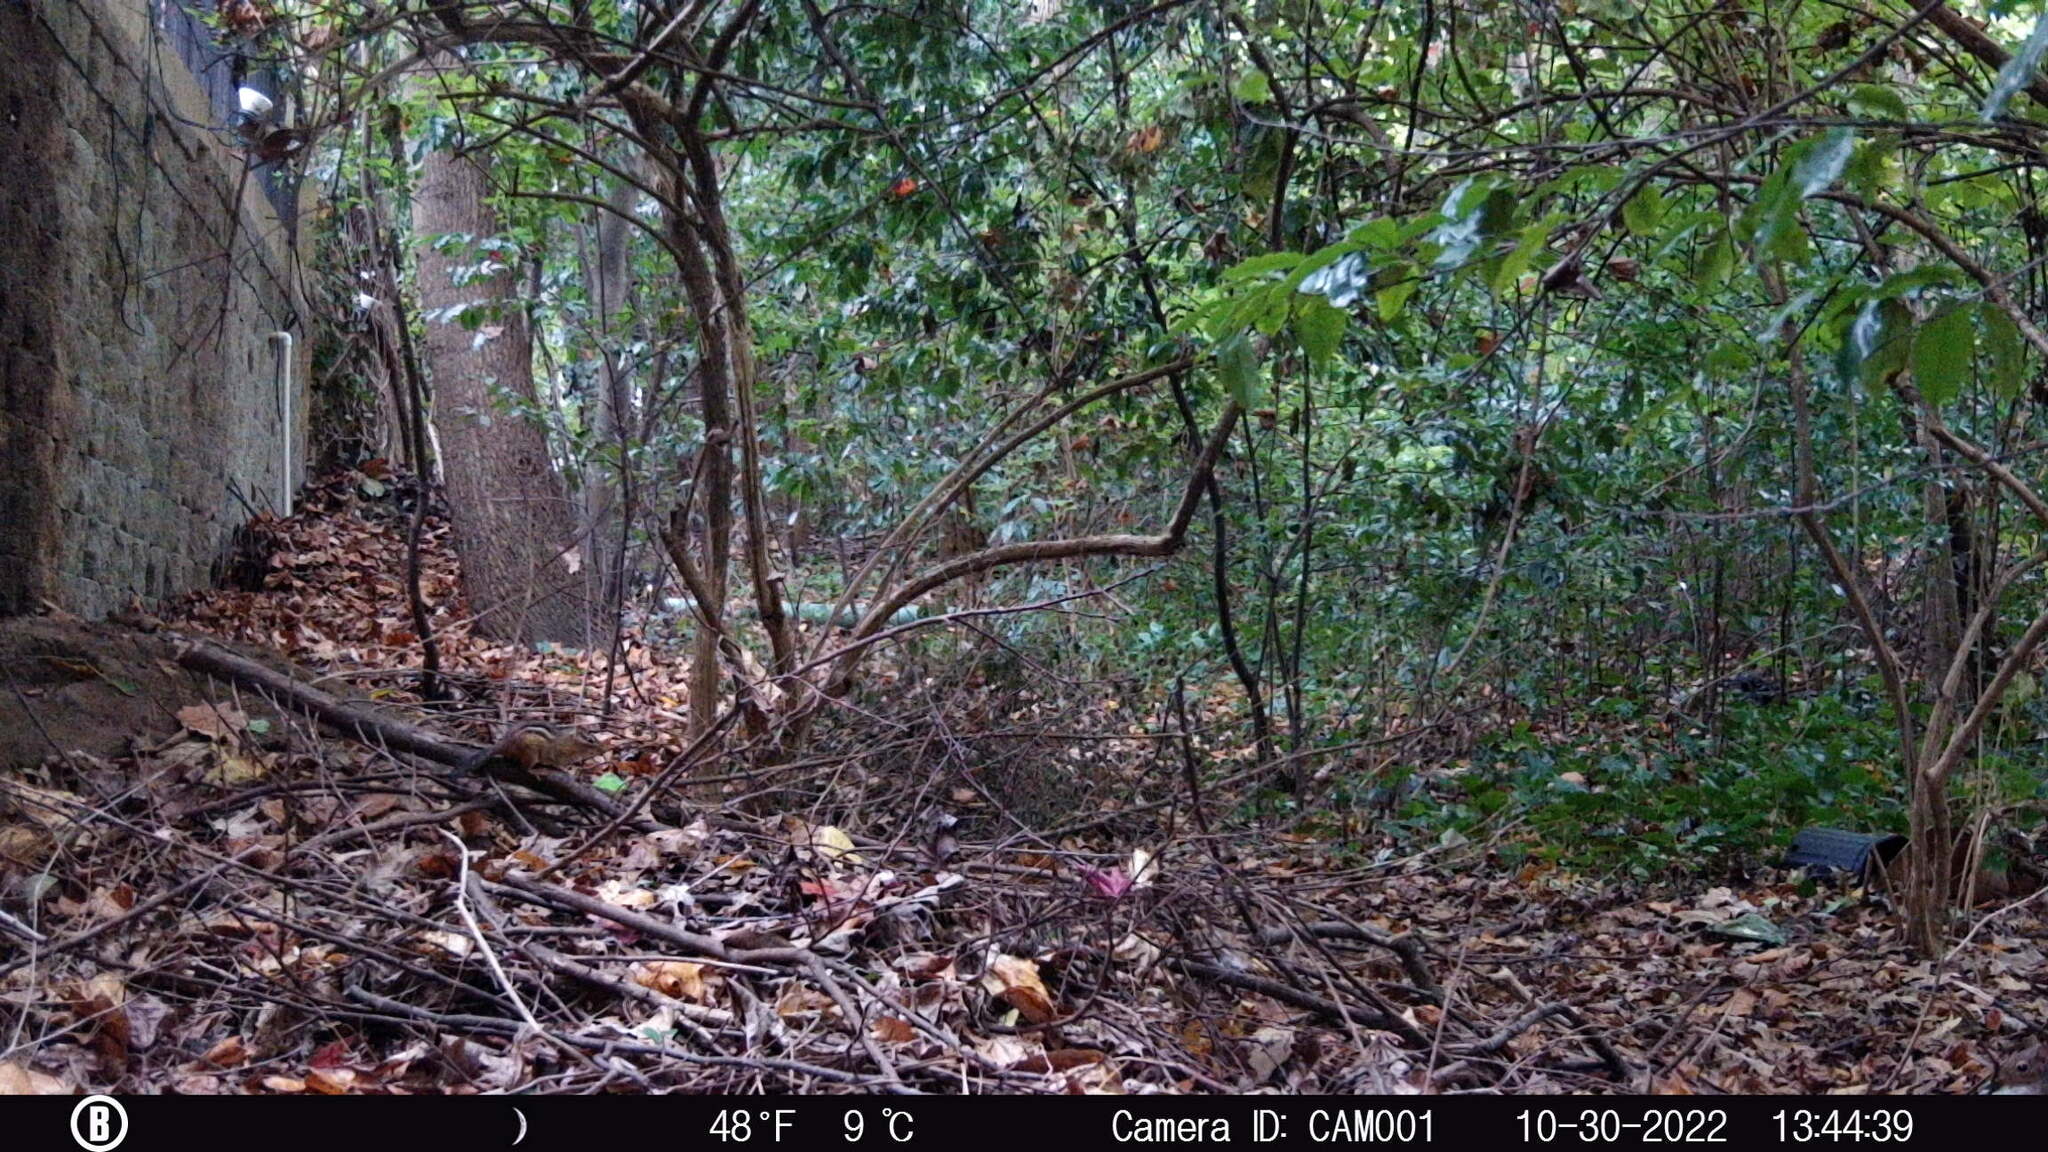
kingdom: Animalia
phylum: Chordata
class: Mammalia
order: Rodentia
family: Sciuridae
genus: Tamias
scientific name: Tamias striatus
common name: Eastern chipmunk
